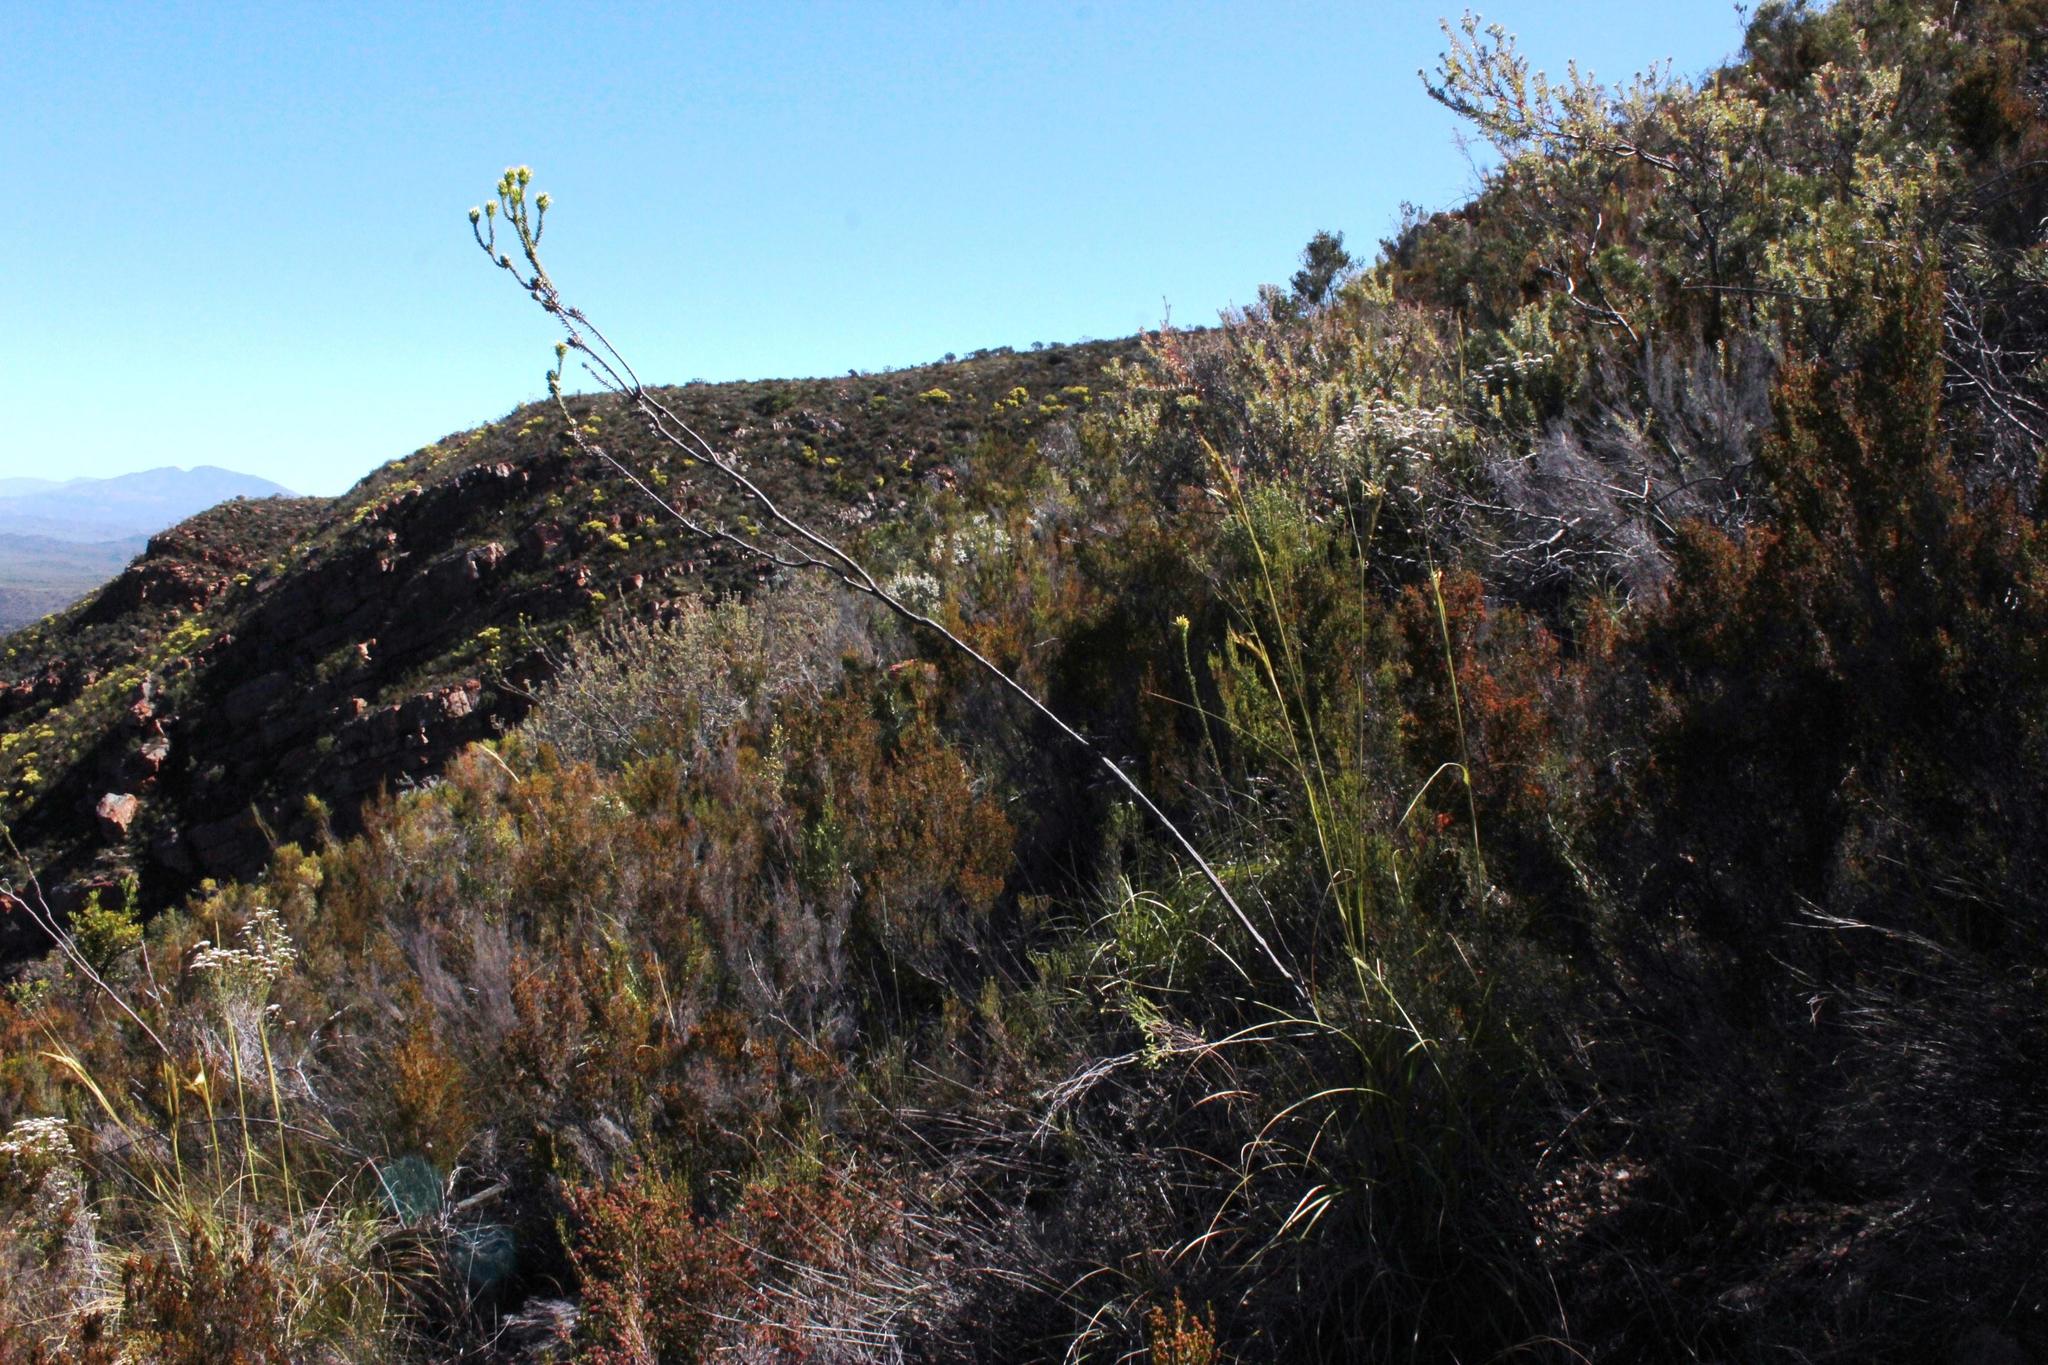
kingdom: Plantae
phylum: Tracheophyta
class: Magnoliopsida
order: Asterales
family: Asteraceae
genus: Oedera
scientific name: Oedera capensis
